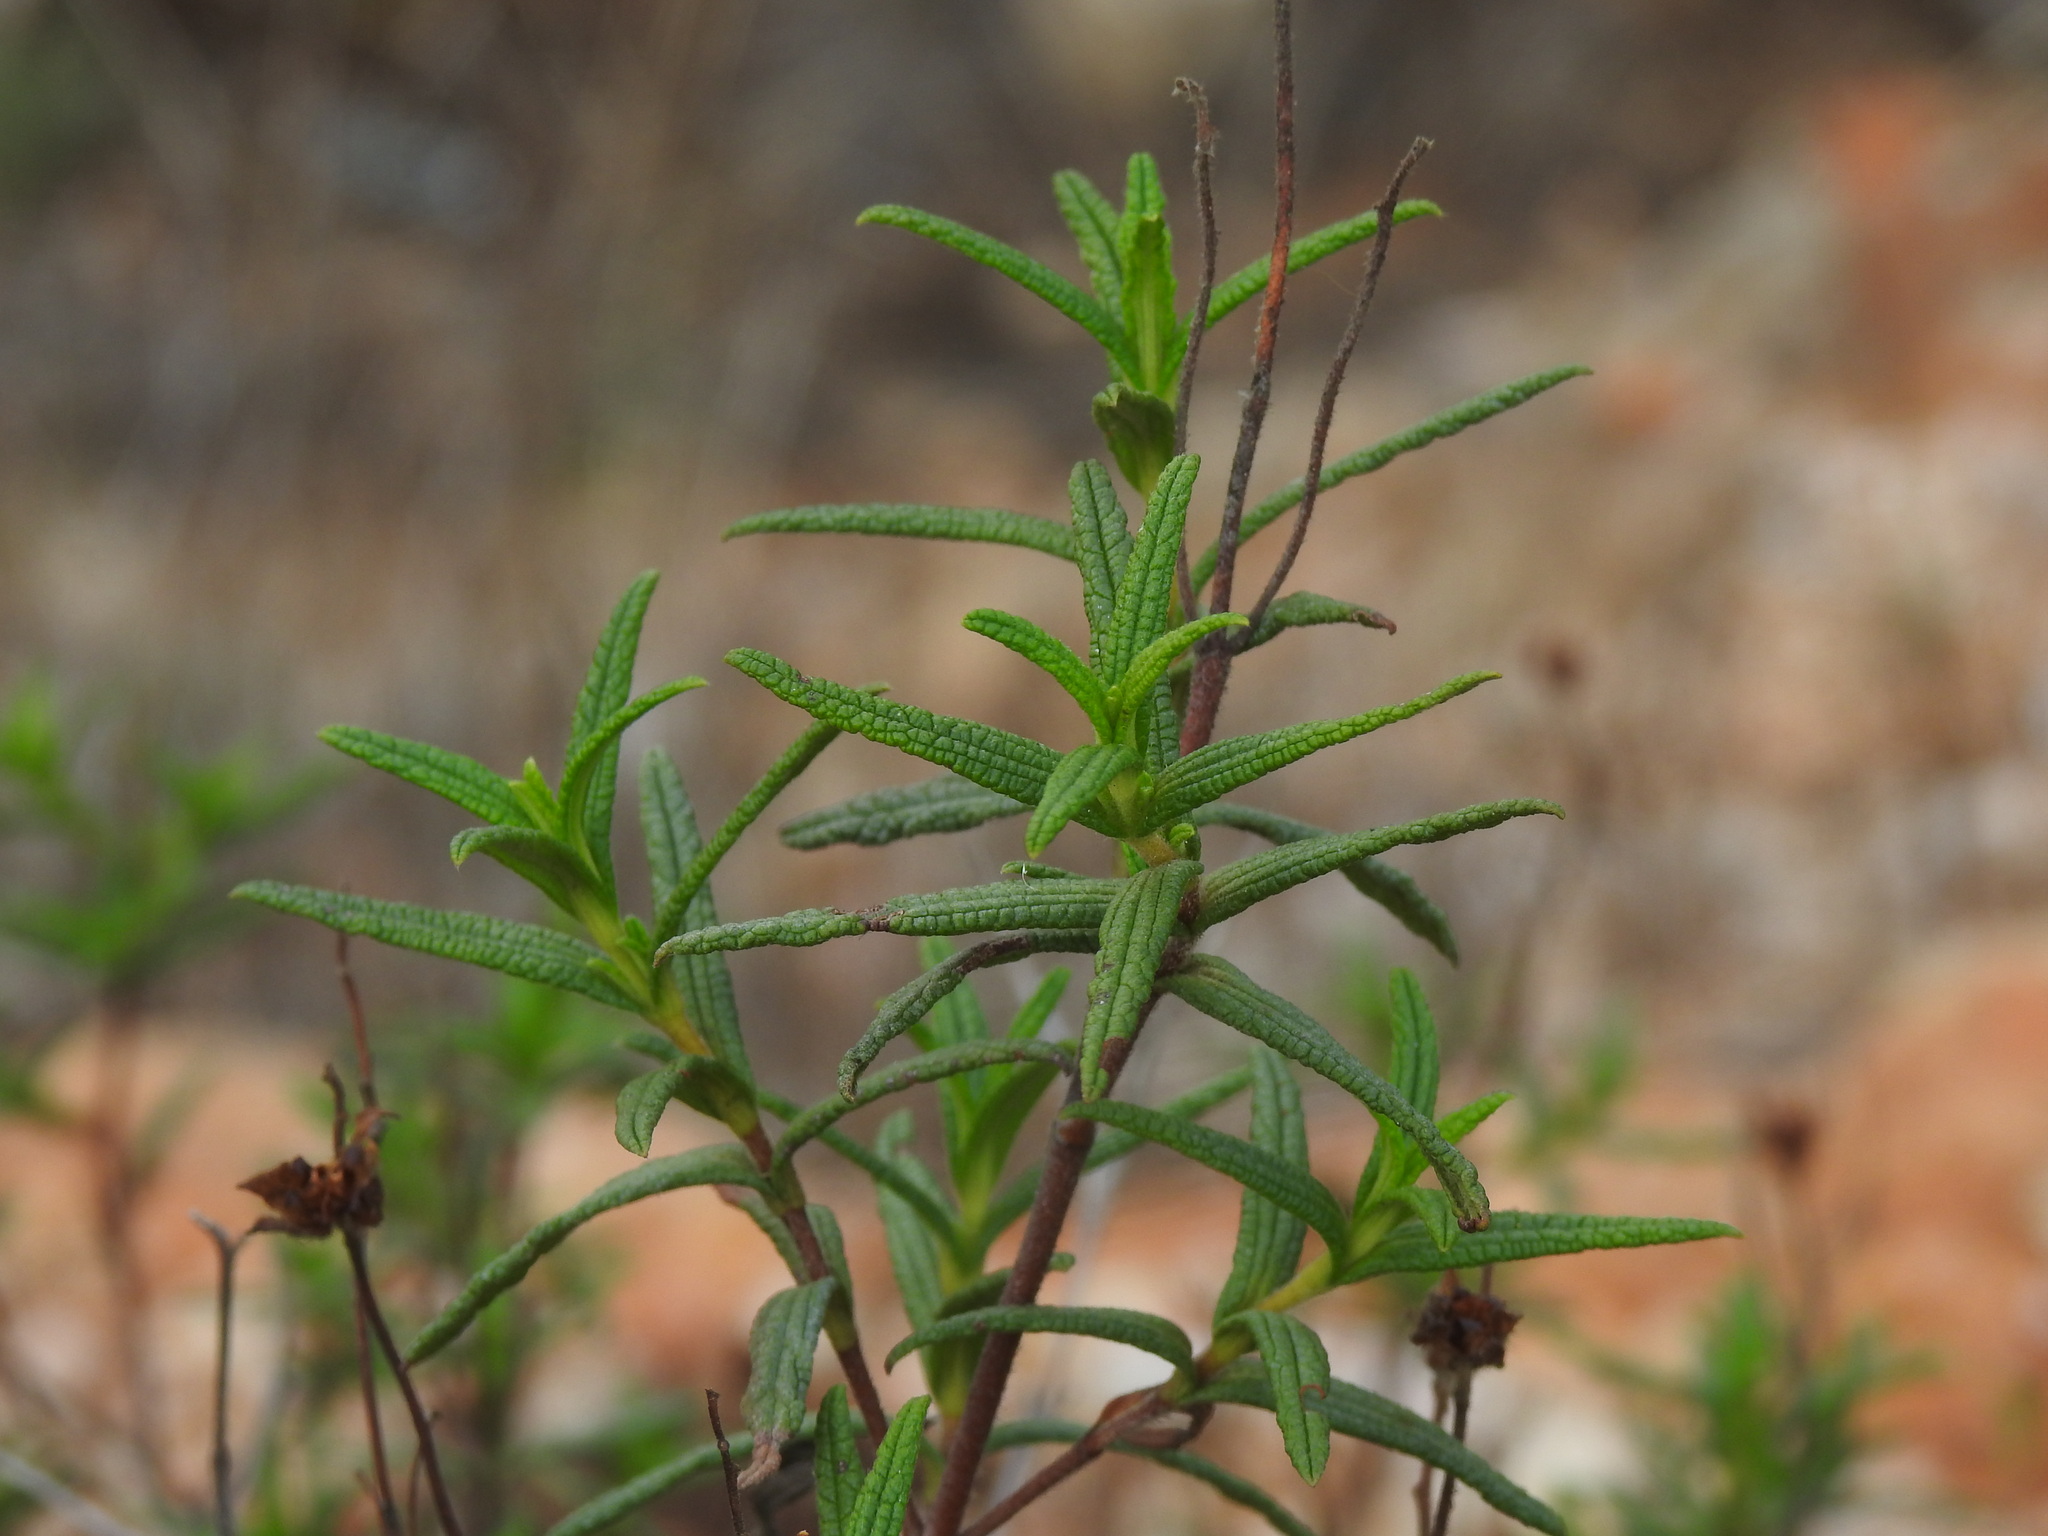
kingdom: Plantae
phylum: Tracheophyta
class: Magnoliopsida
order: Malvales
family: Cistaceae
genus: Cistus
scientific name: Cistus monspeliensis
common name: Montpelier cistus
